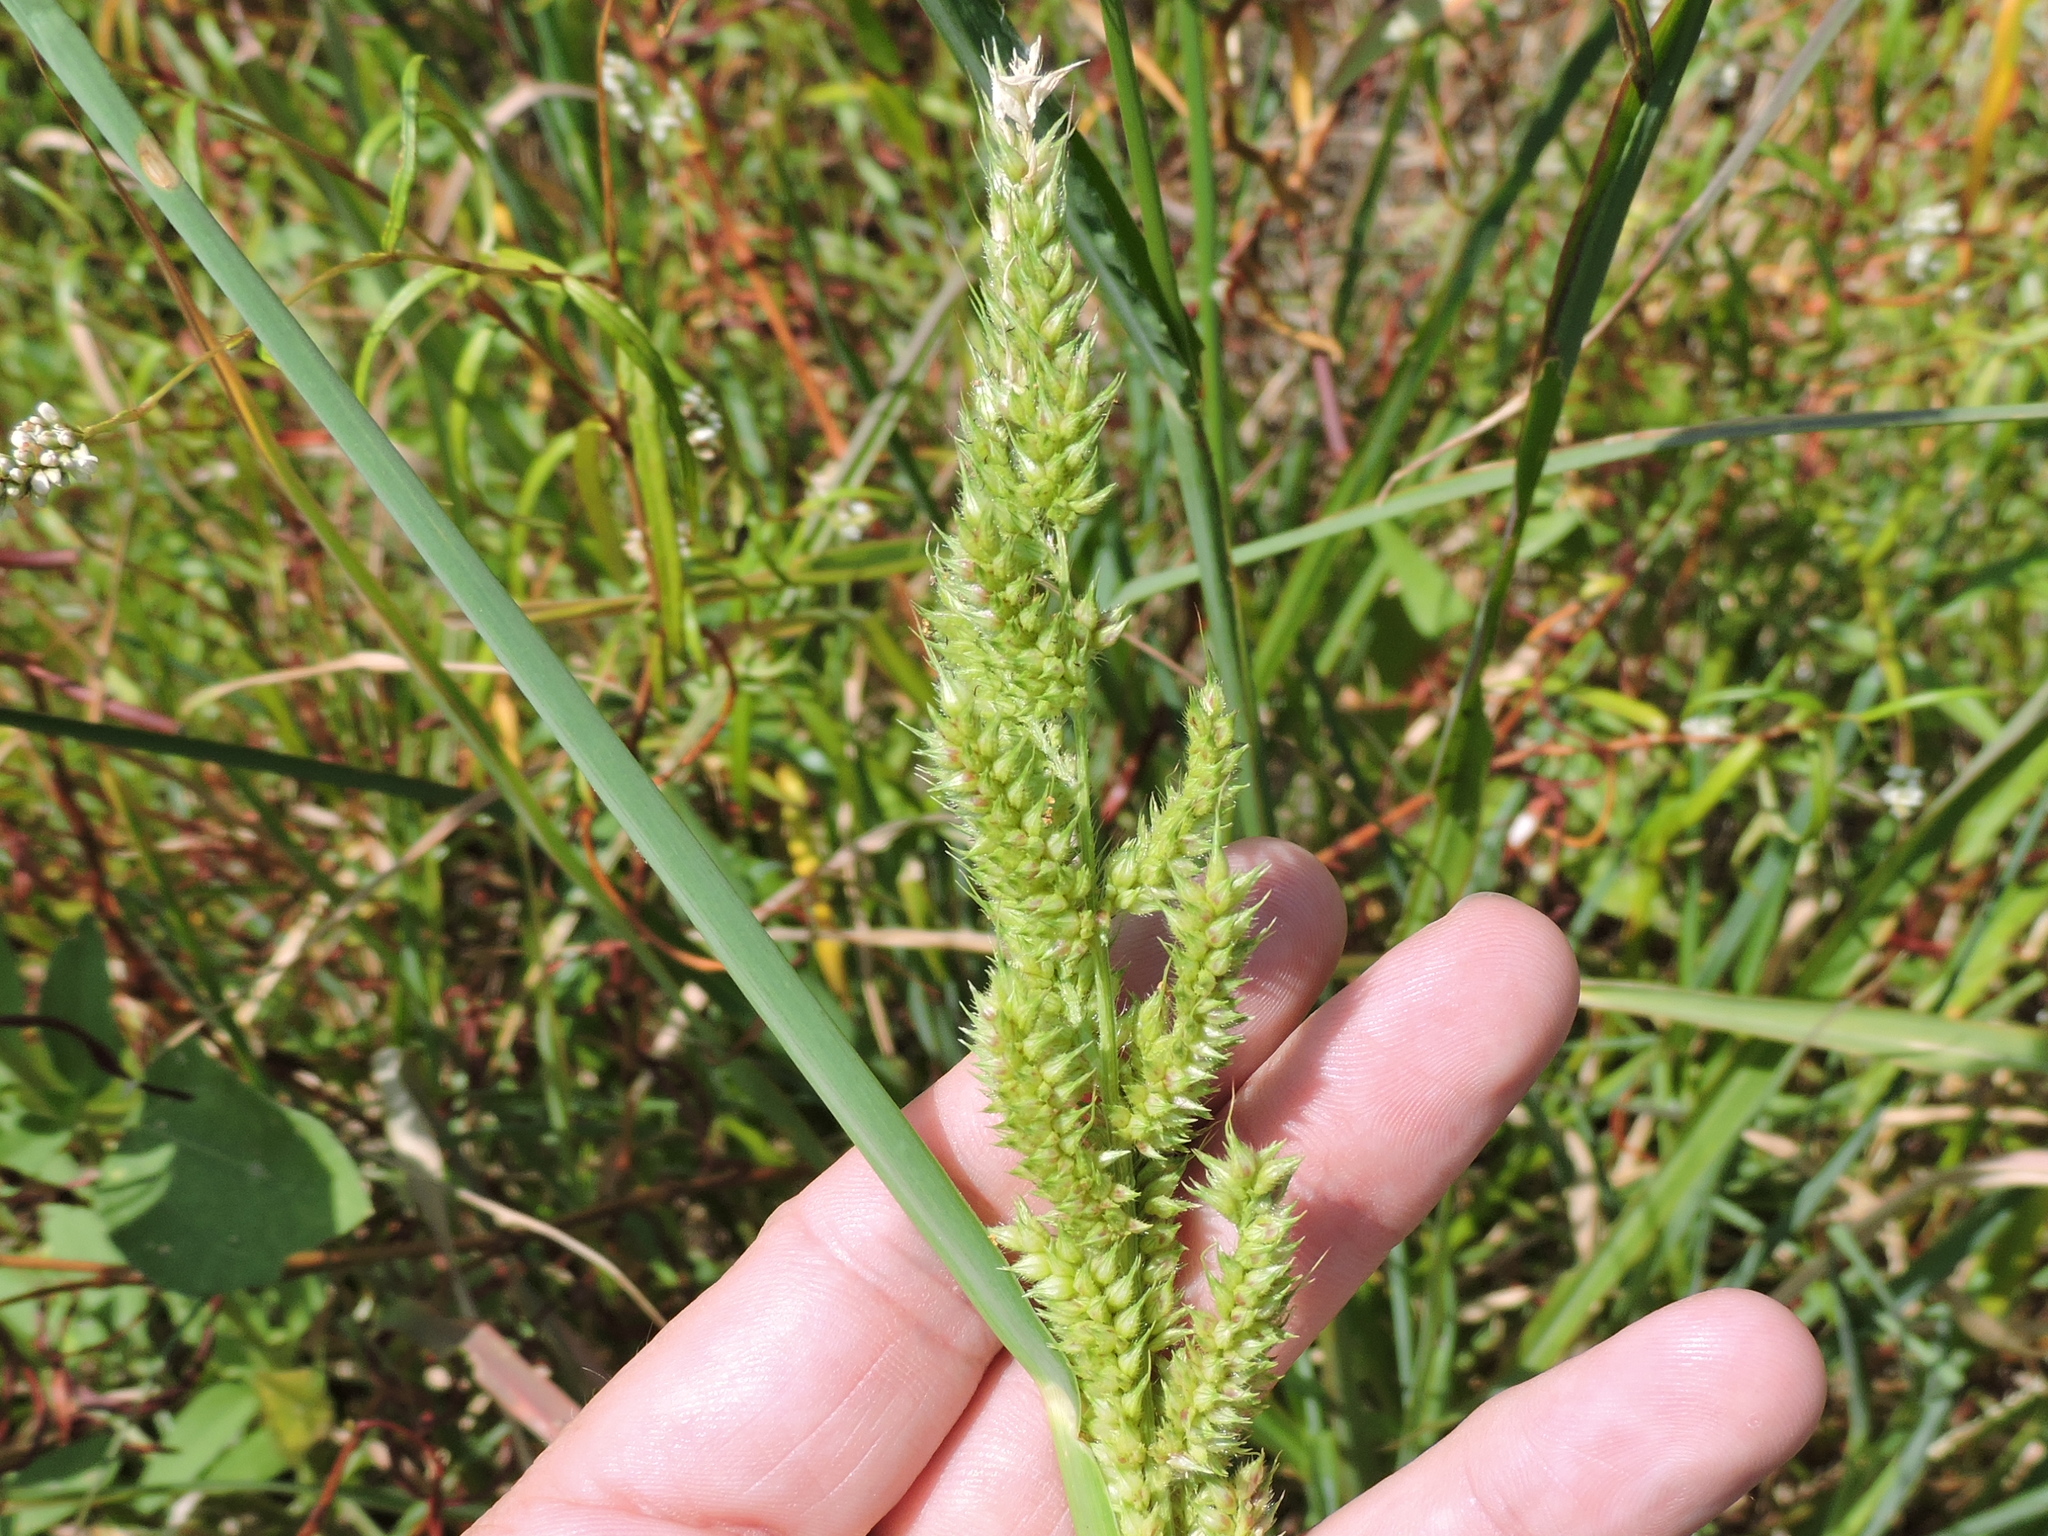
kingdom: Plantae
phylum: Tracheophyta
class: Liliopsida
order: Poales
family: Poaceae
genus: Echinochloa
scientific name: Echinochloa crus-galli
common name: Cockspur
